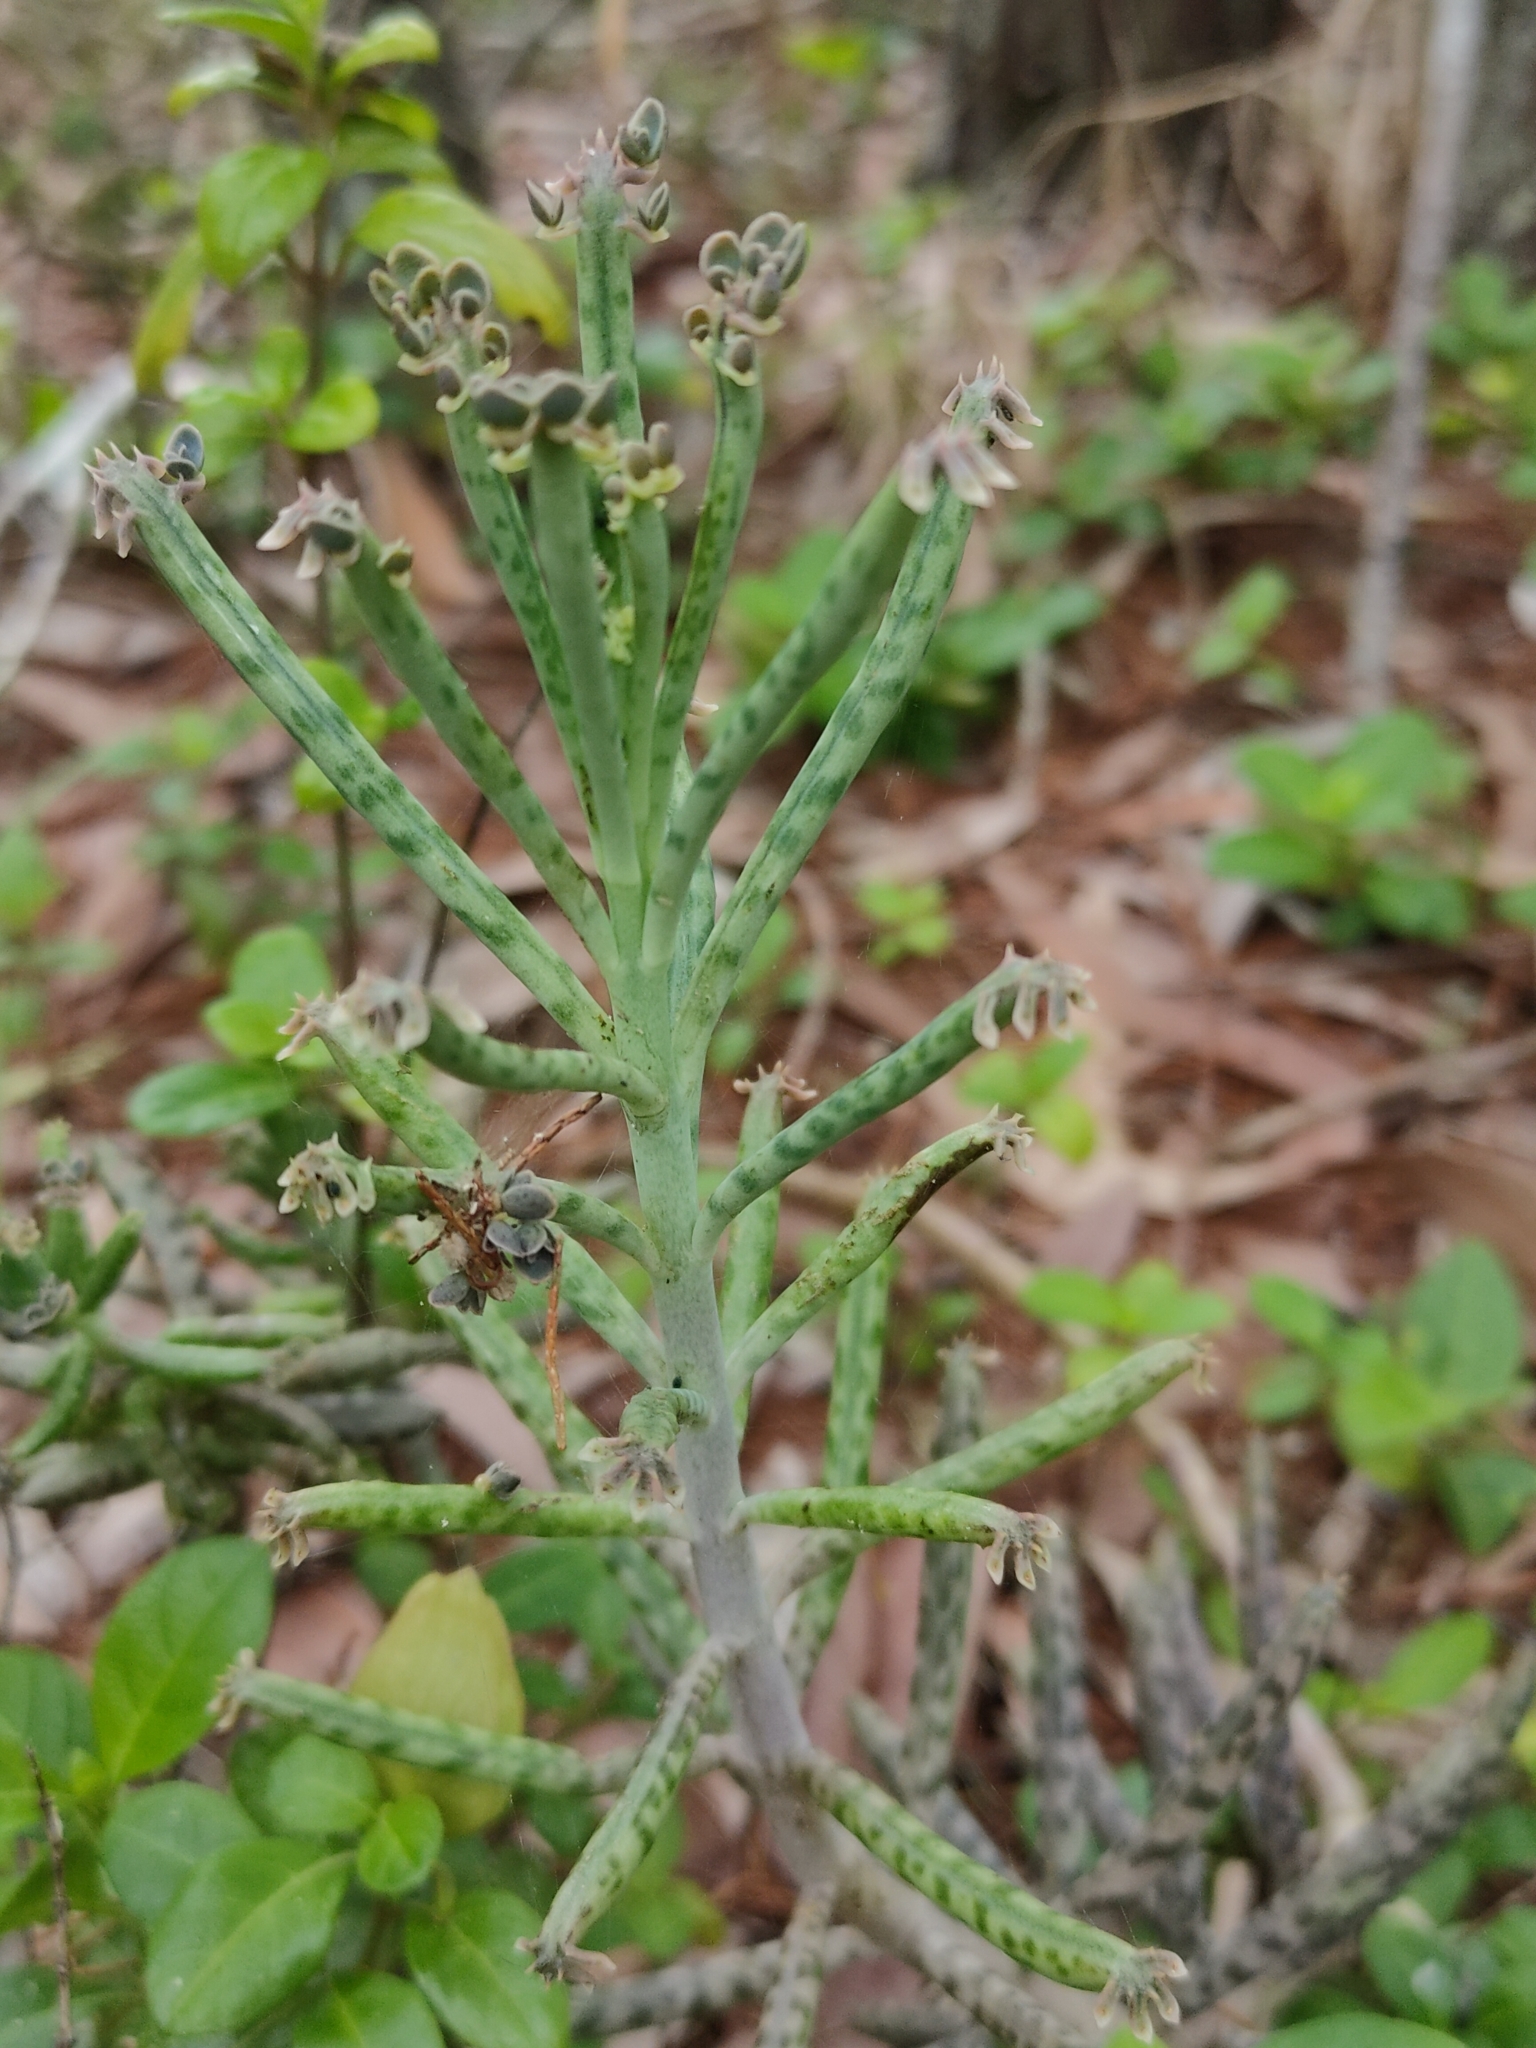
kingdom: Plantae
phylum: Tracheophyta
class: Magnoliopsida
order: Saxifragales
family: Crassulaceae
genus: Kalanchoe
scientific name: Kalanchoe delagoensis
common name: Chandelier plant
